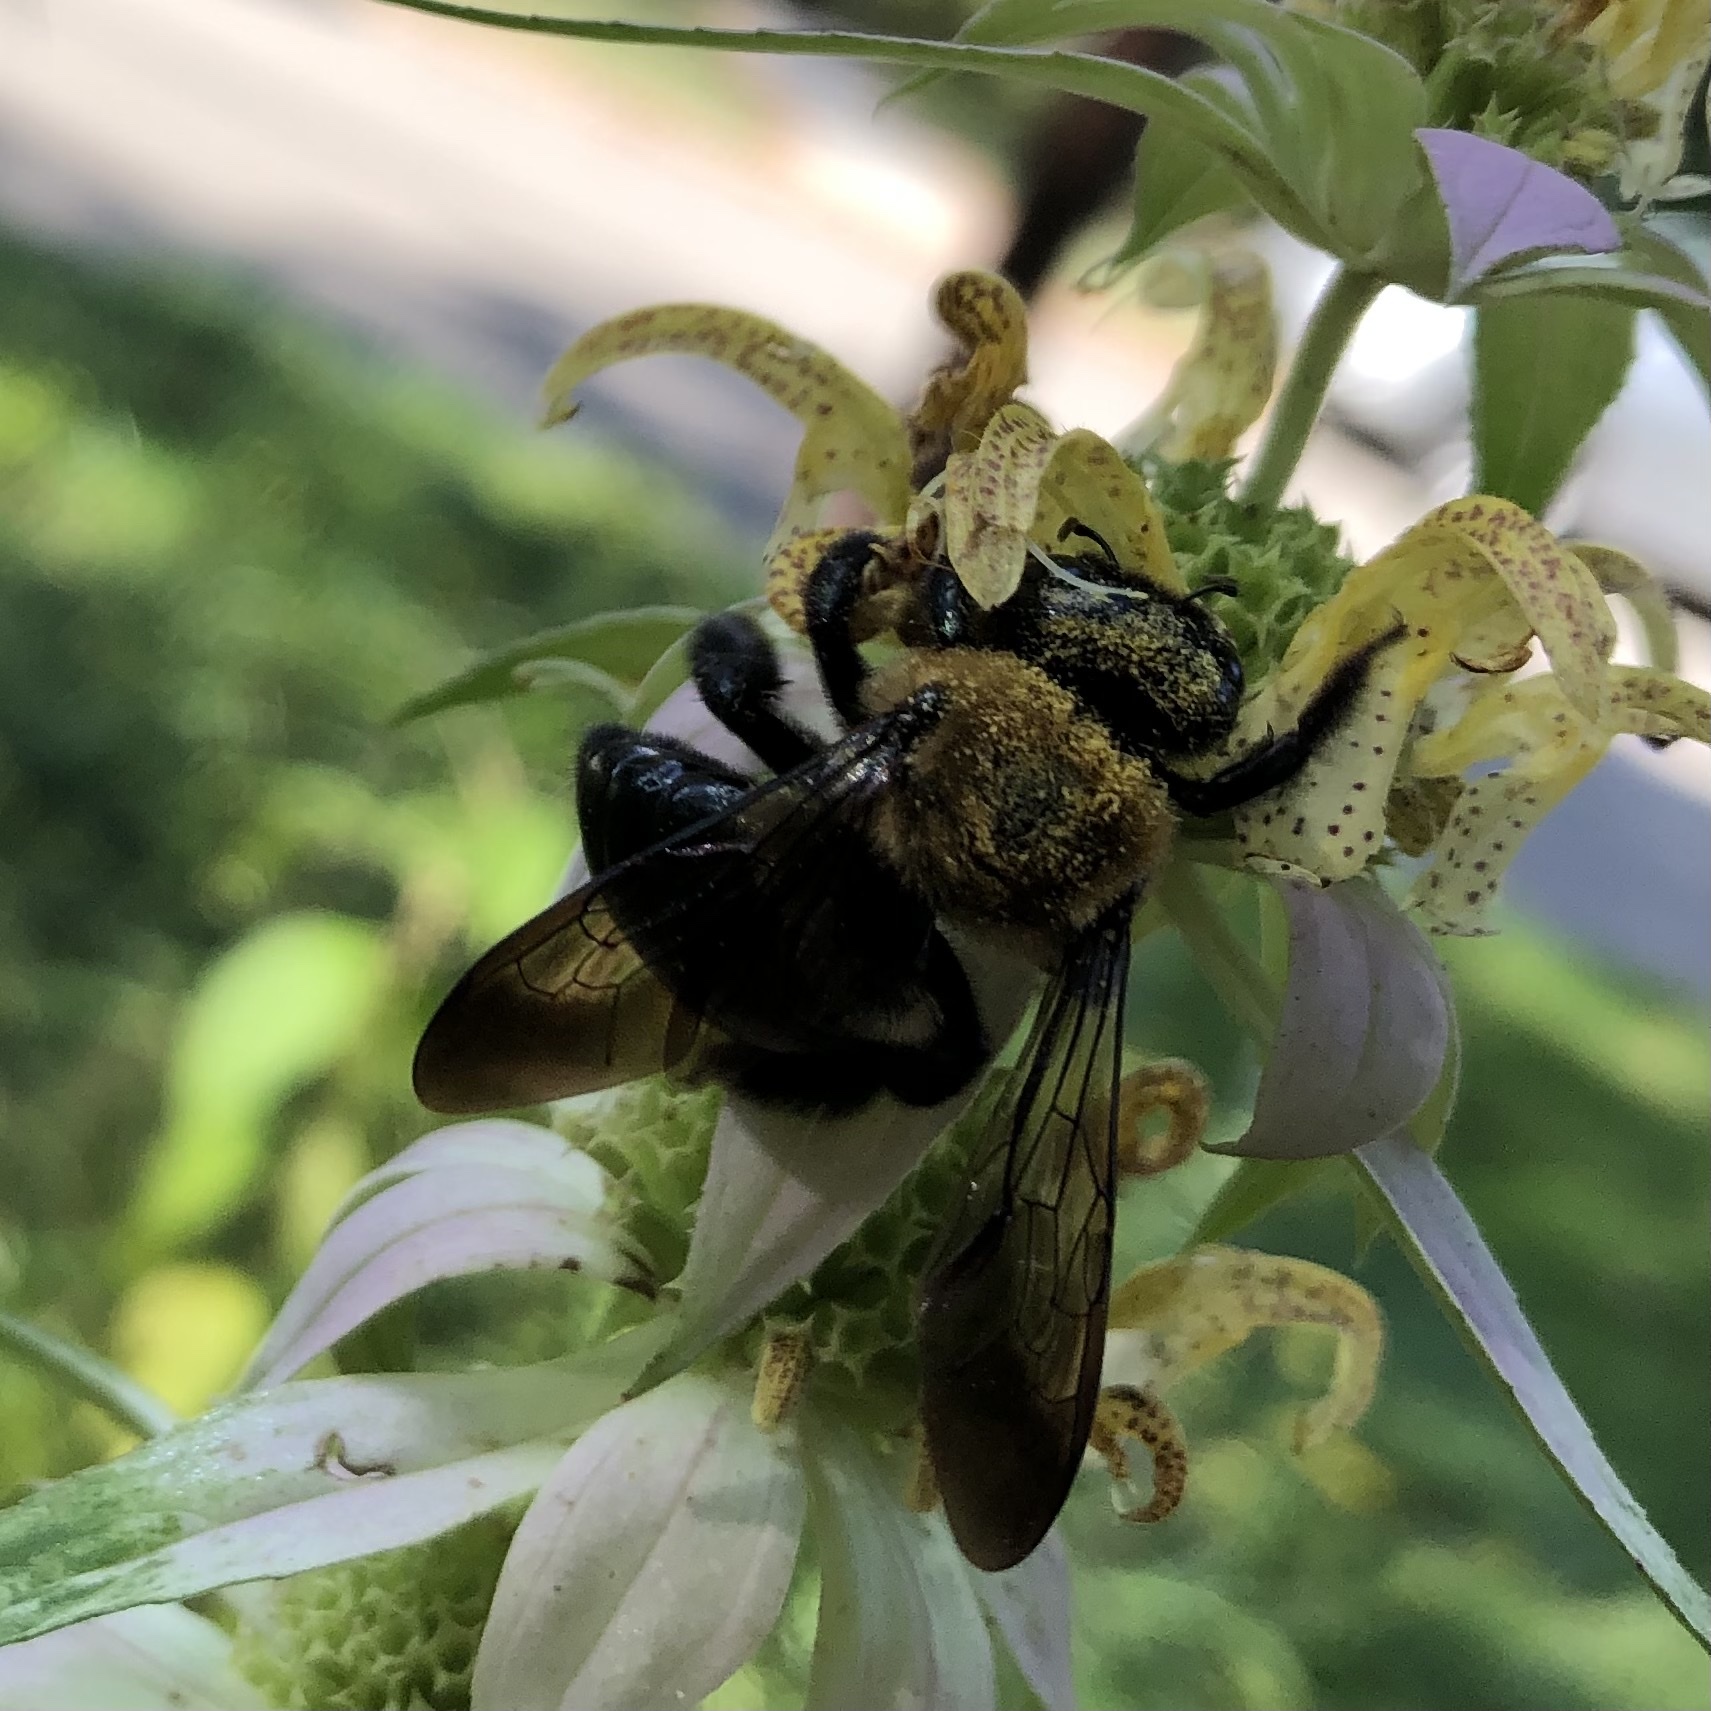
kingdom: Animalia
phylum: Arthropoda
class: Insecta
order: Hymenoptera
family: Apidae
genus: Xylocopa
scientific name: Xylocopa virginica
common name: Carpenter bee
